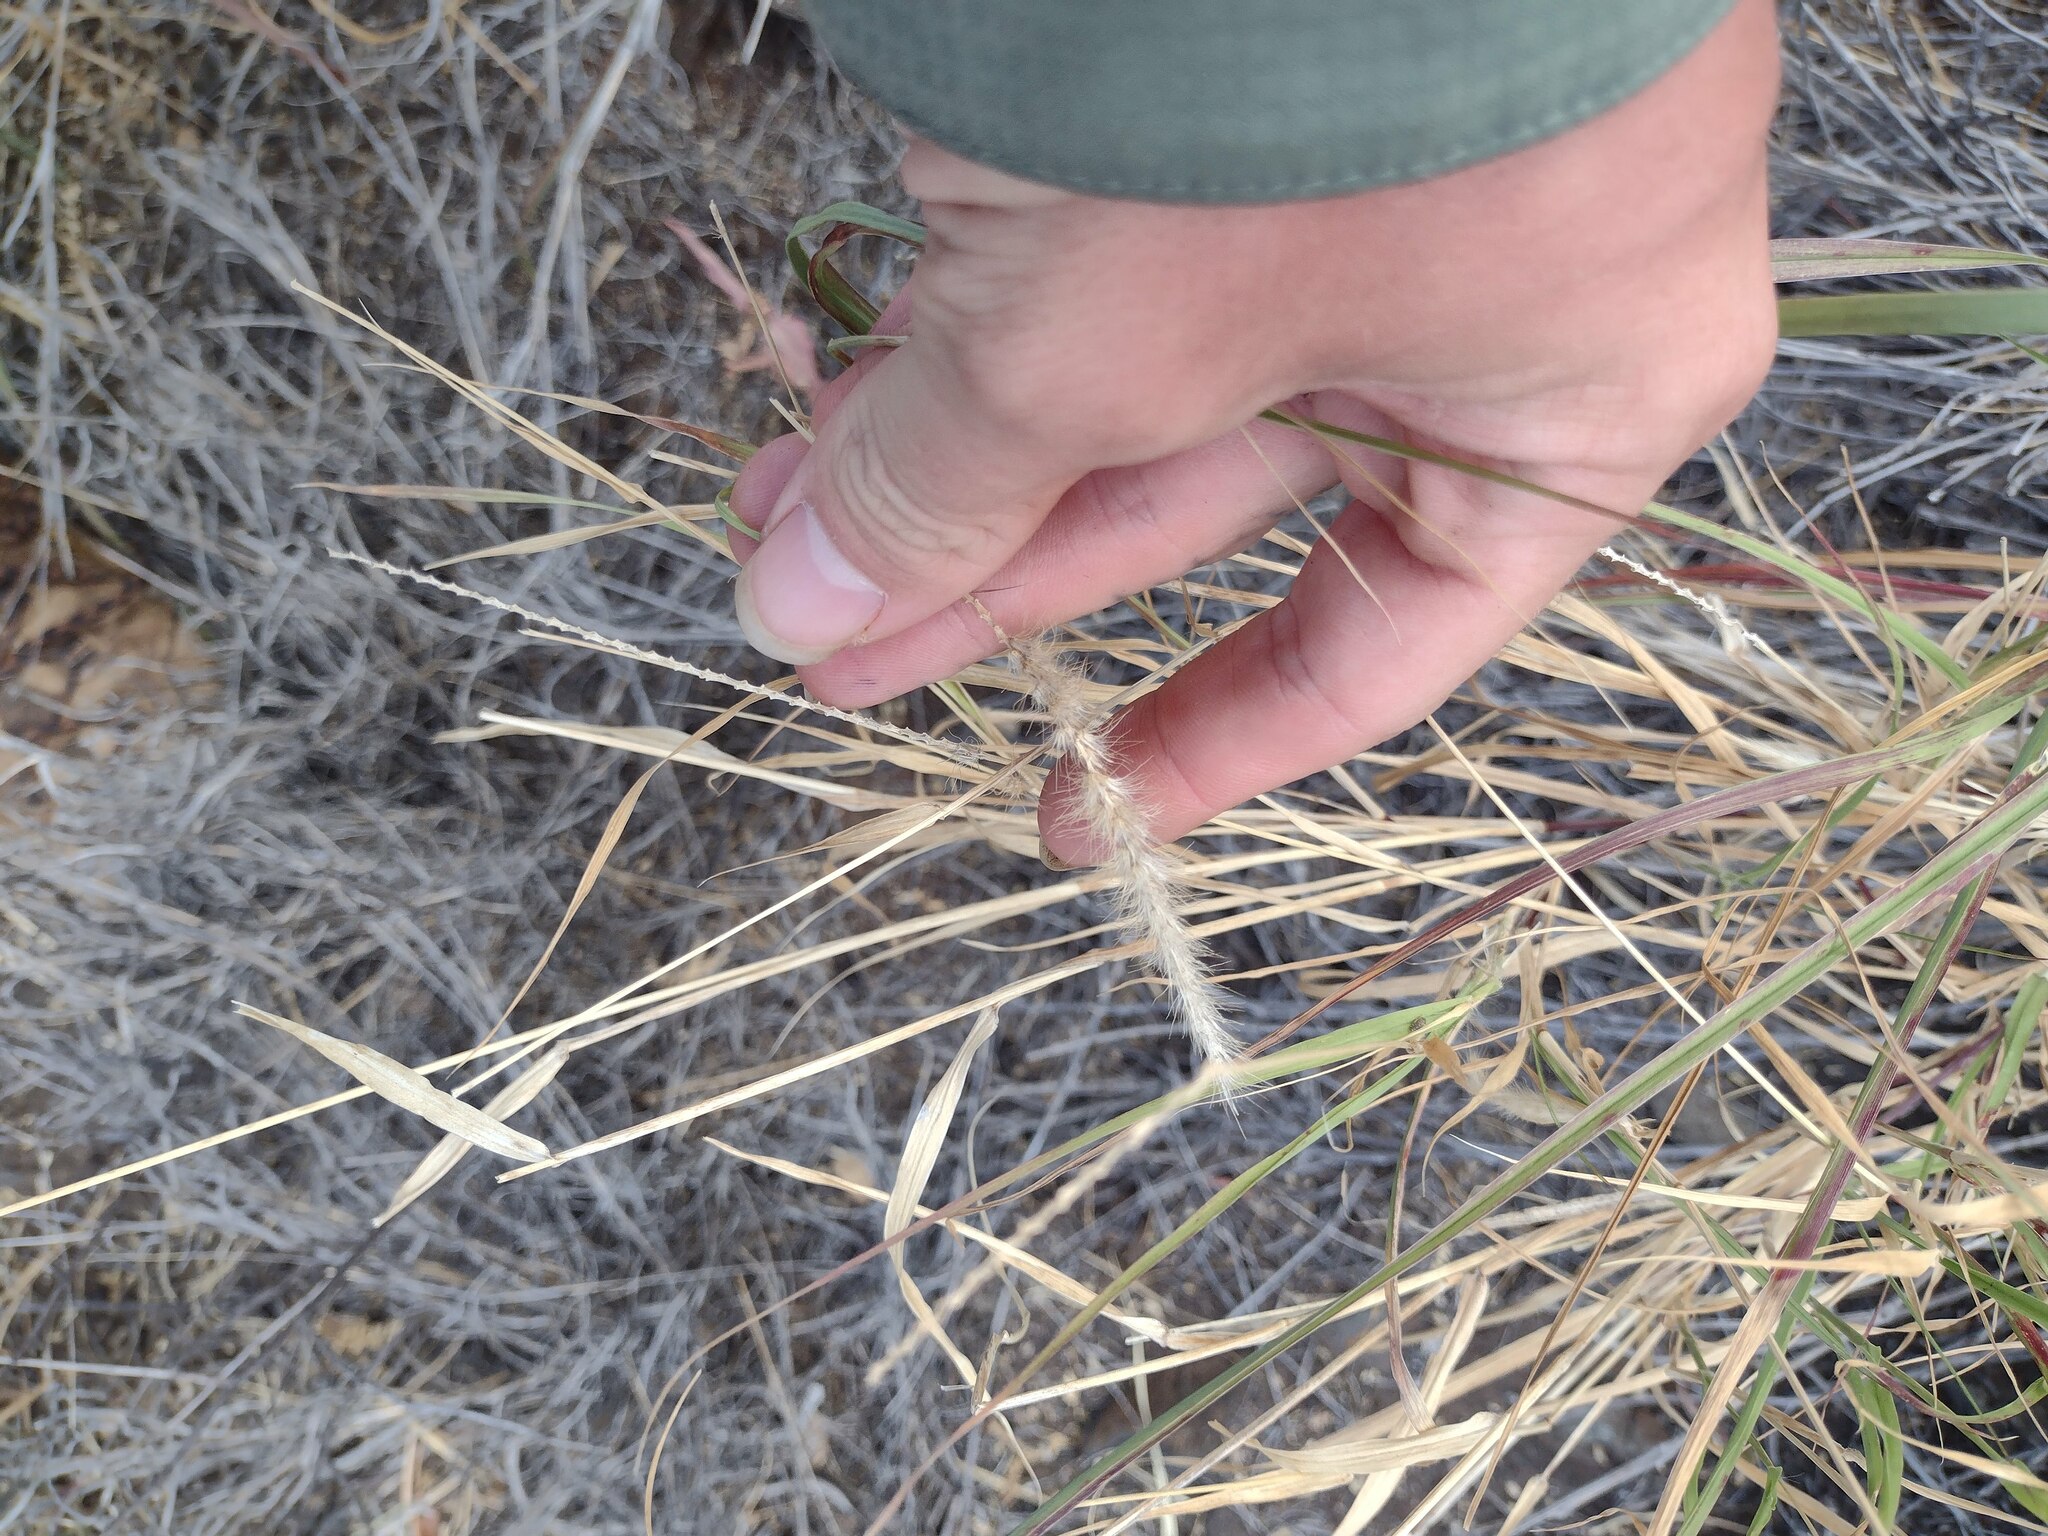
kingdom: Plantae
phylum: Tracheophyta
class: Liliopsida
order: Poales
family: Poaceae
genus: Cenchrus
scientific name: Cenchrus ciliaris
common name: Buffelgrass
